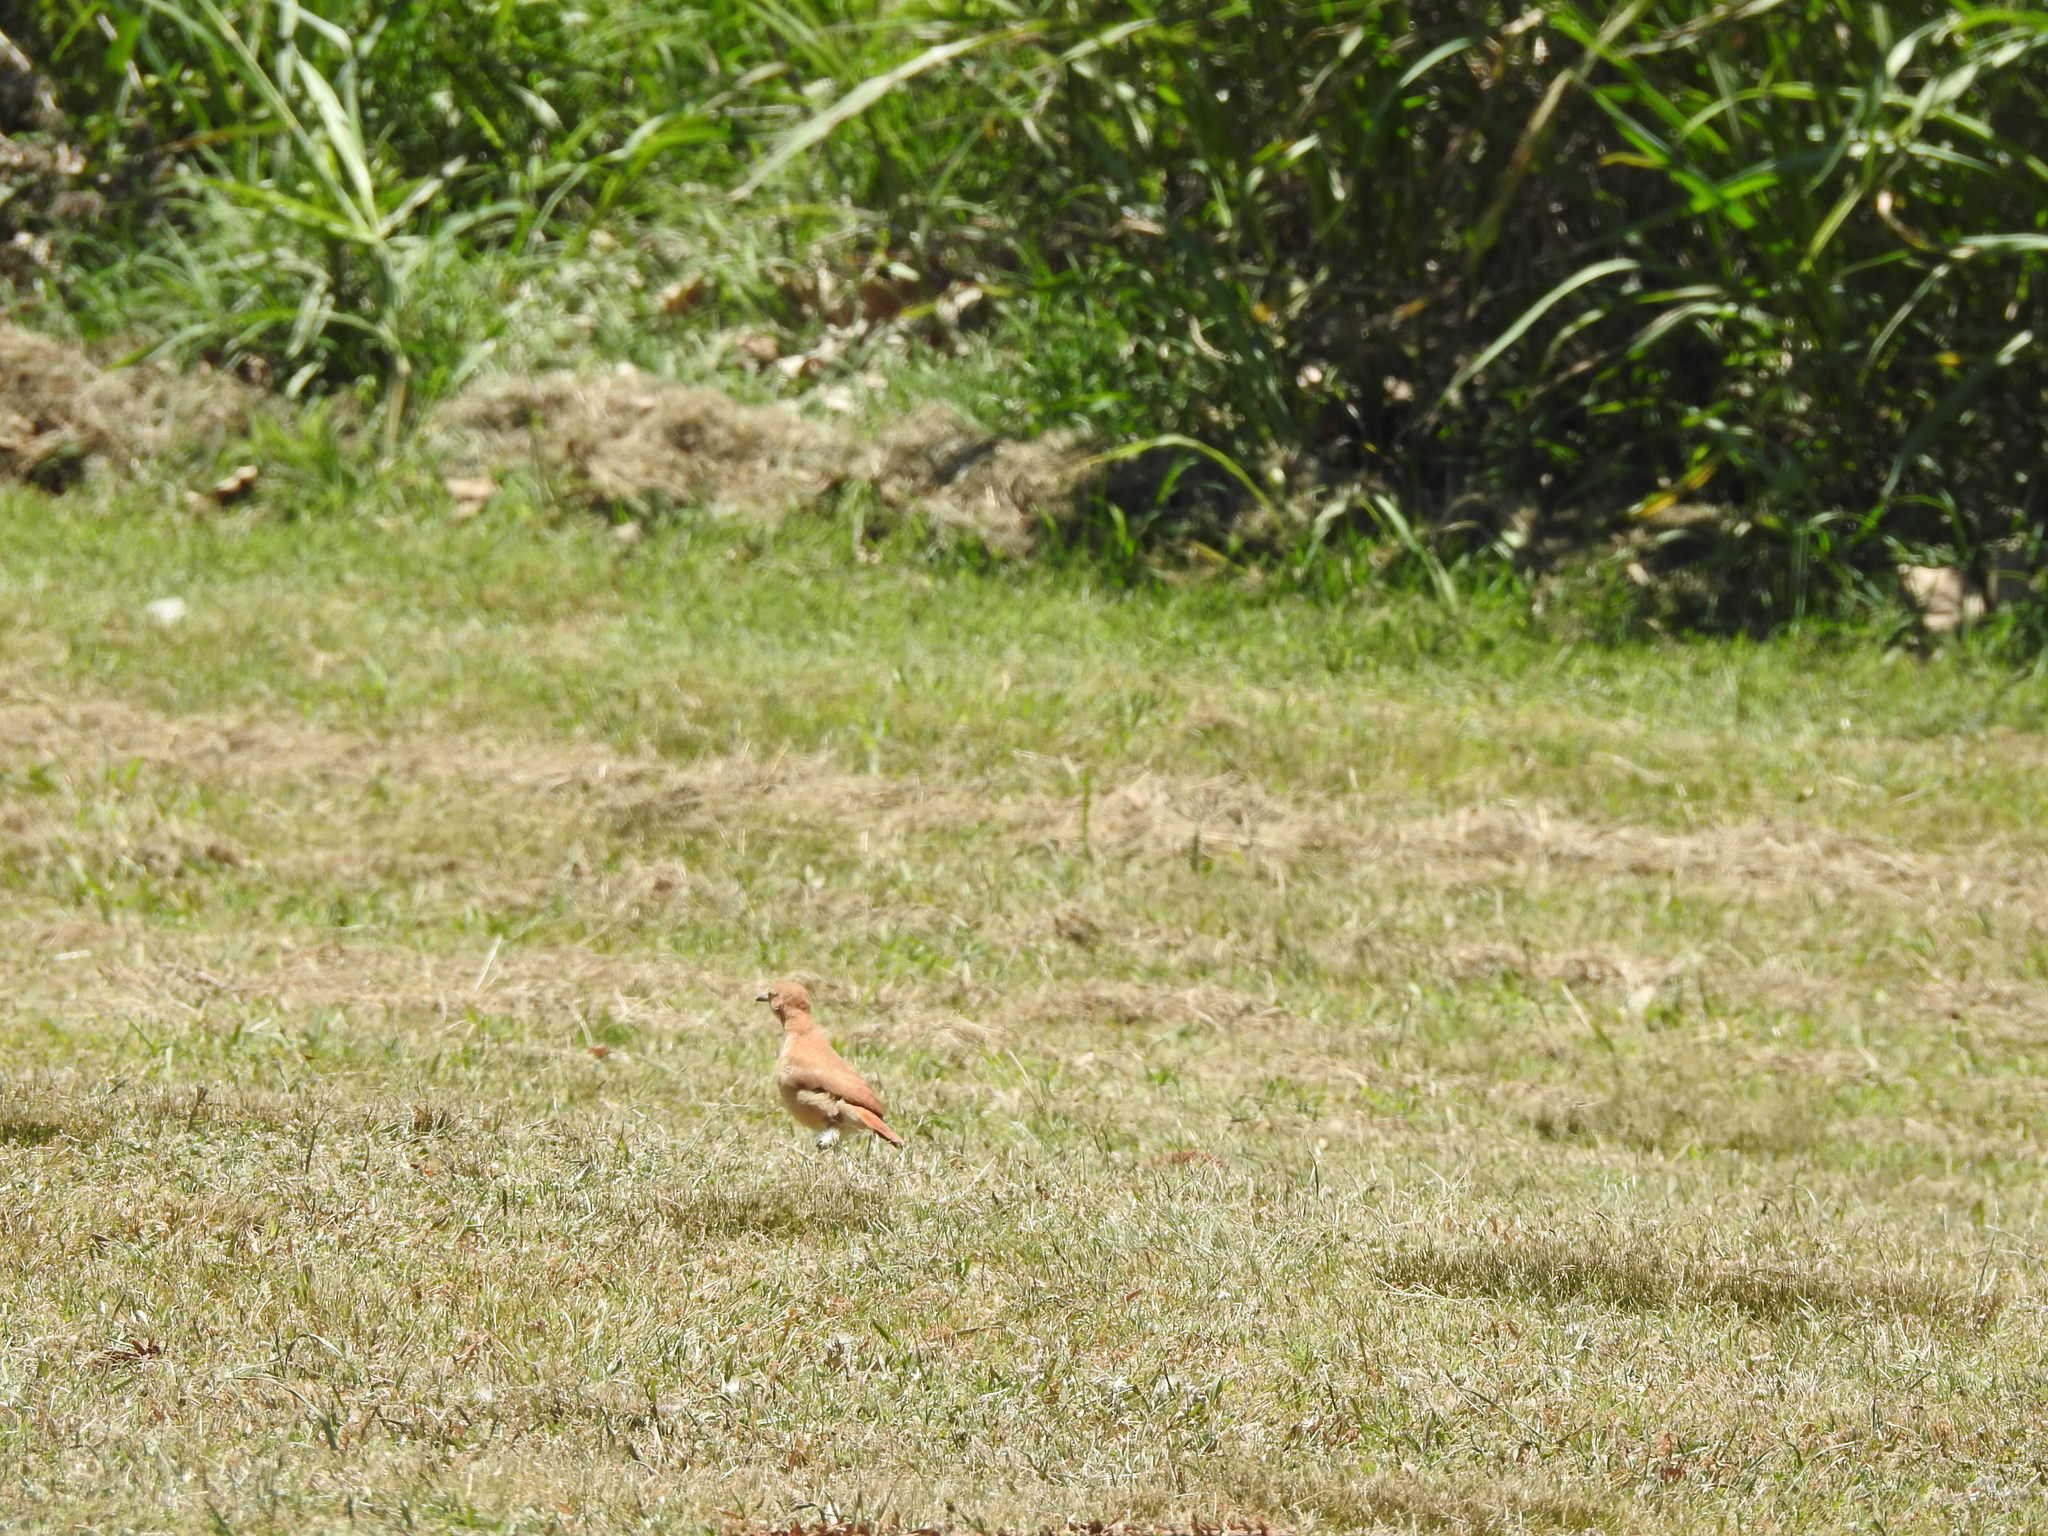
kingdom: Animalia
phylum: Chordata
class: Aves
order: Passeriformes
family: Furnariidae
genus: Furnarius
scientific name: Furnarius rufus
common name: Rufous hornero
